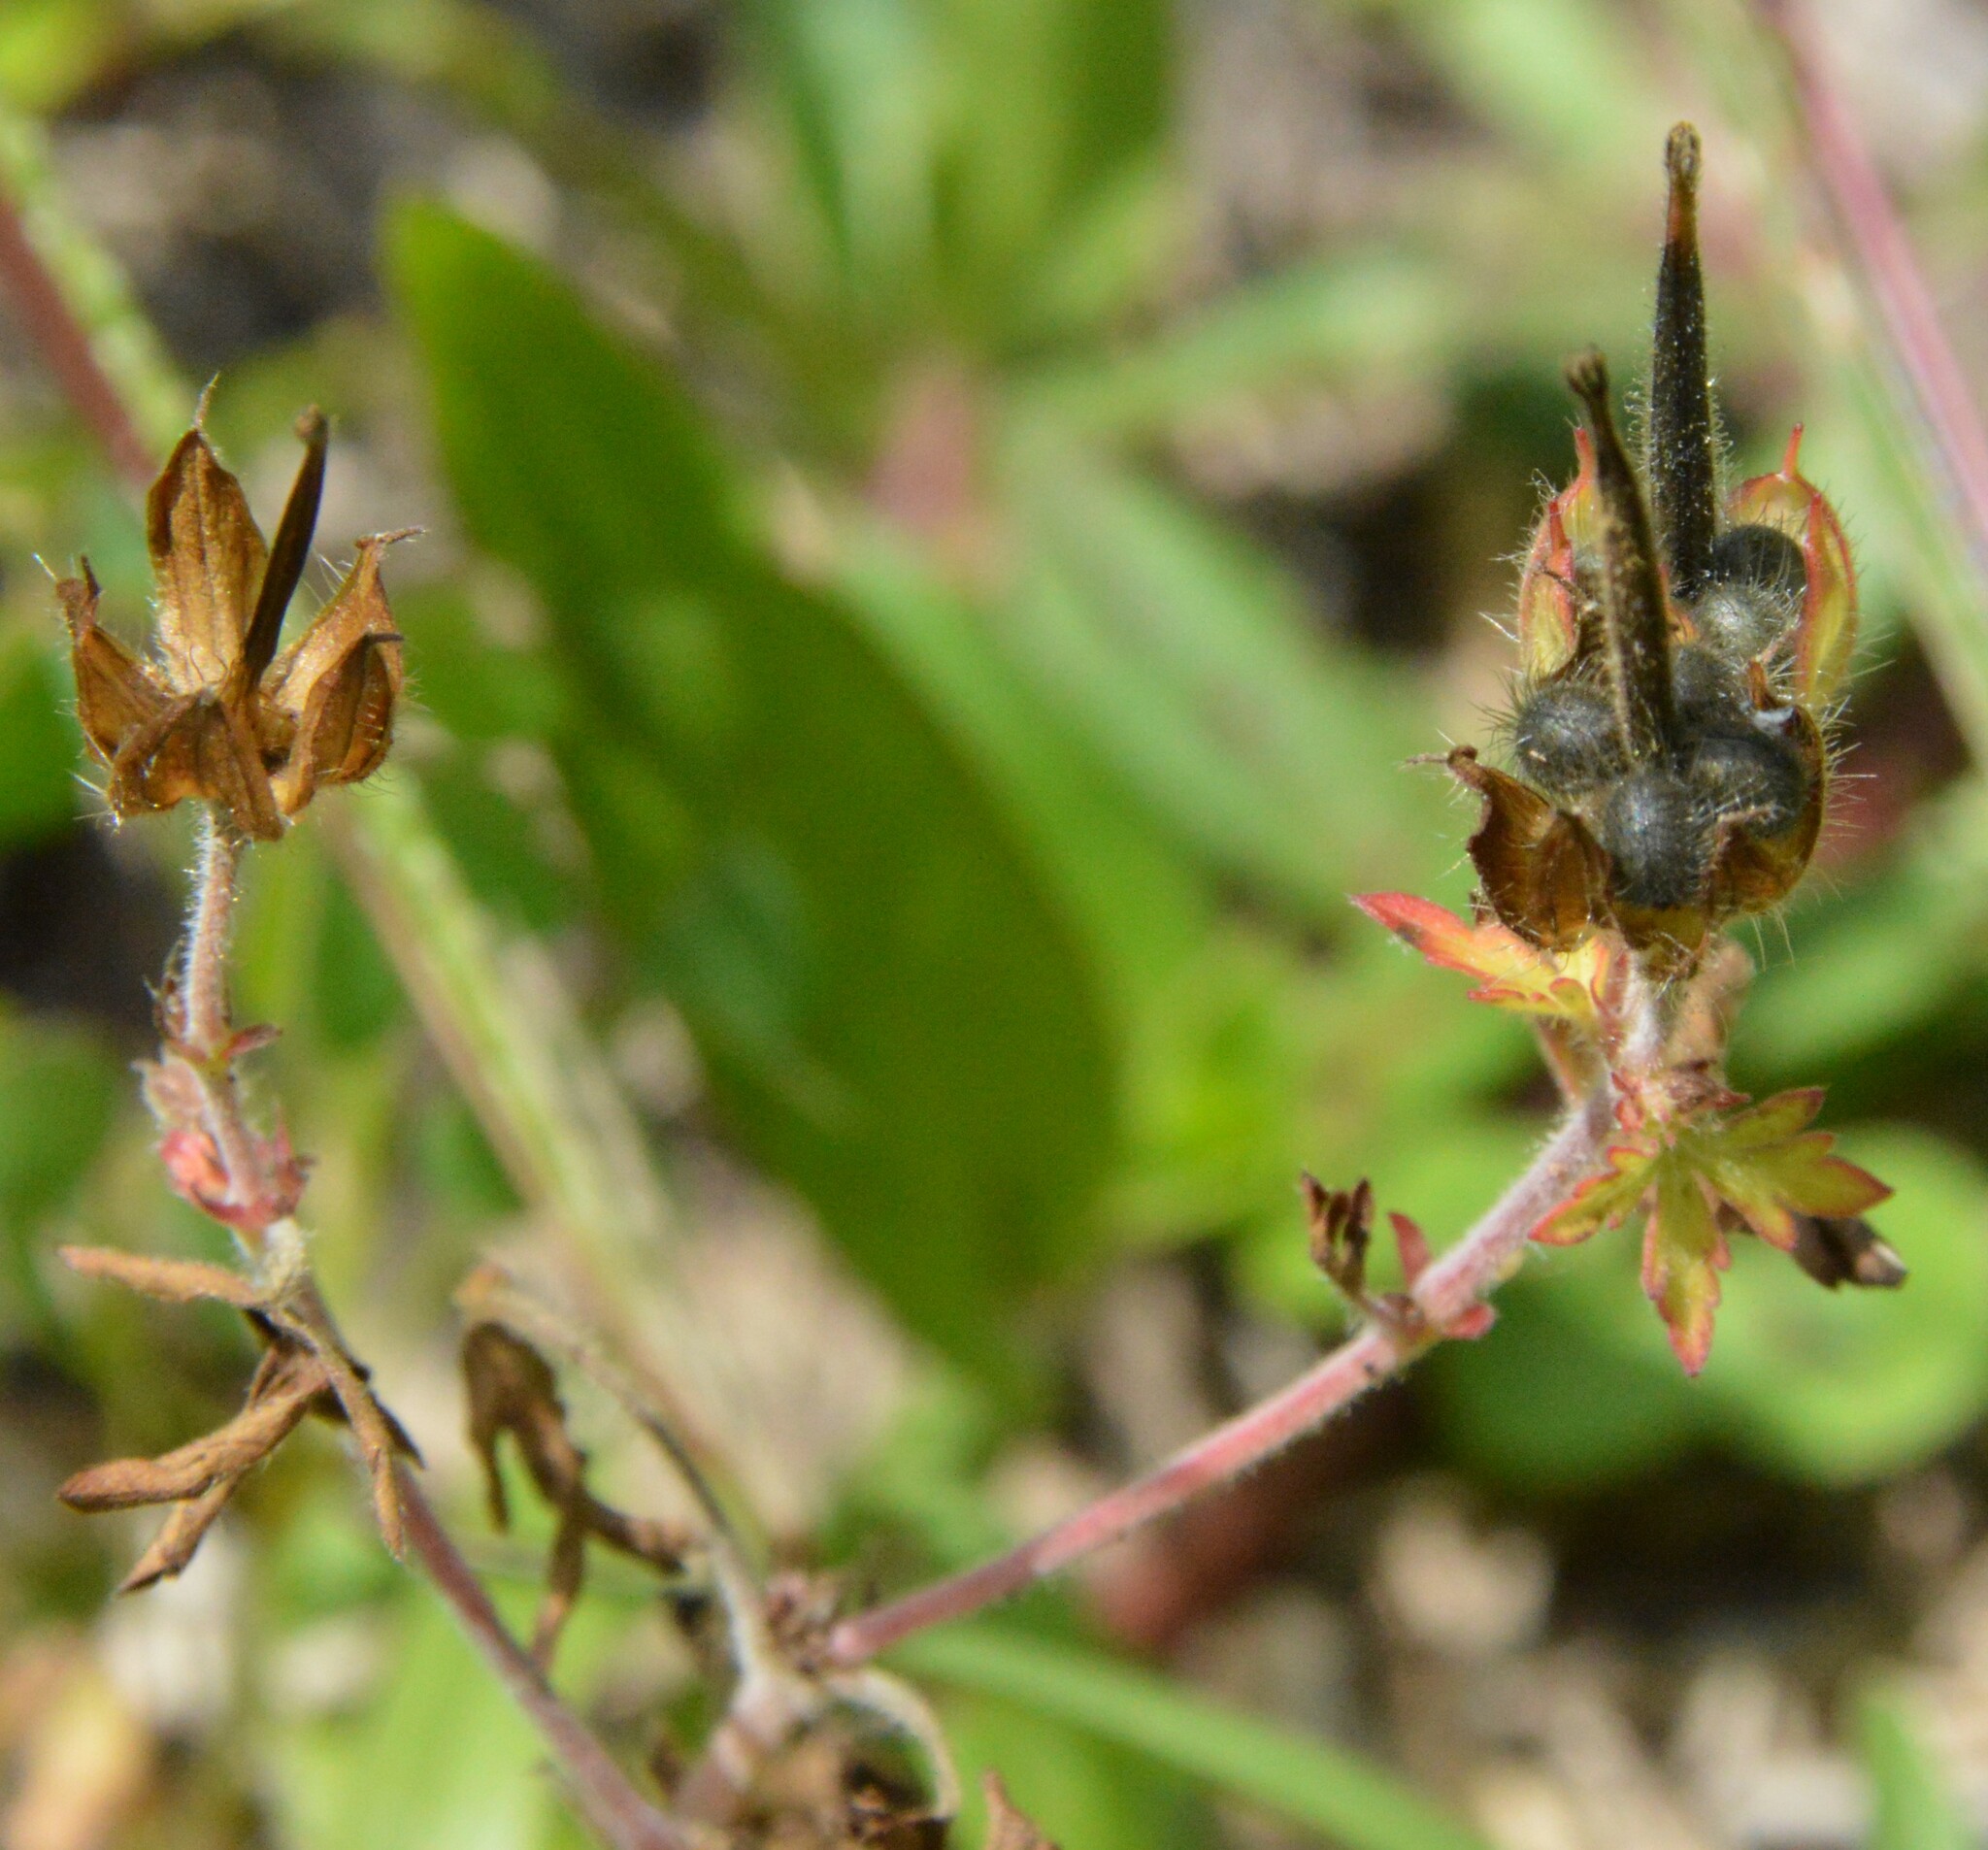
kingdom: Plantae
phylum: Tracheophyta
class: Magnoliopsida
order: Geraniales
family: Geraniaceae
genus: Geranium
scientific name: Geranium carolinianum
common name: Carolina crane's-bill
